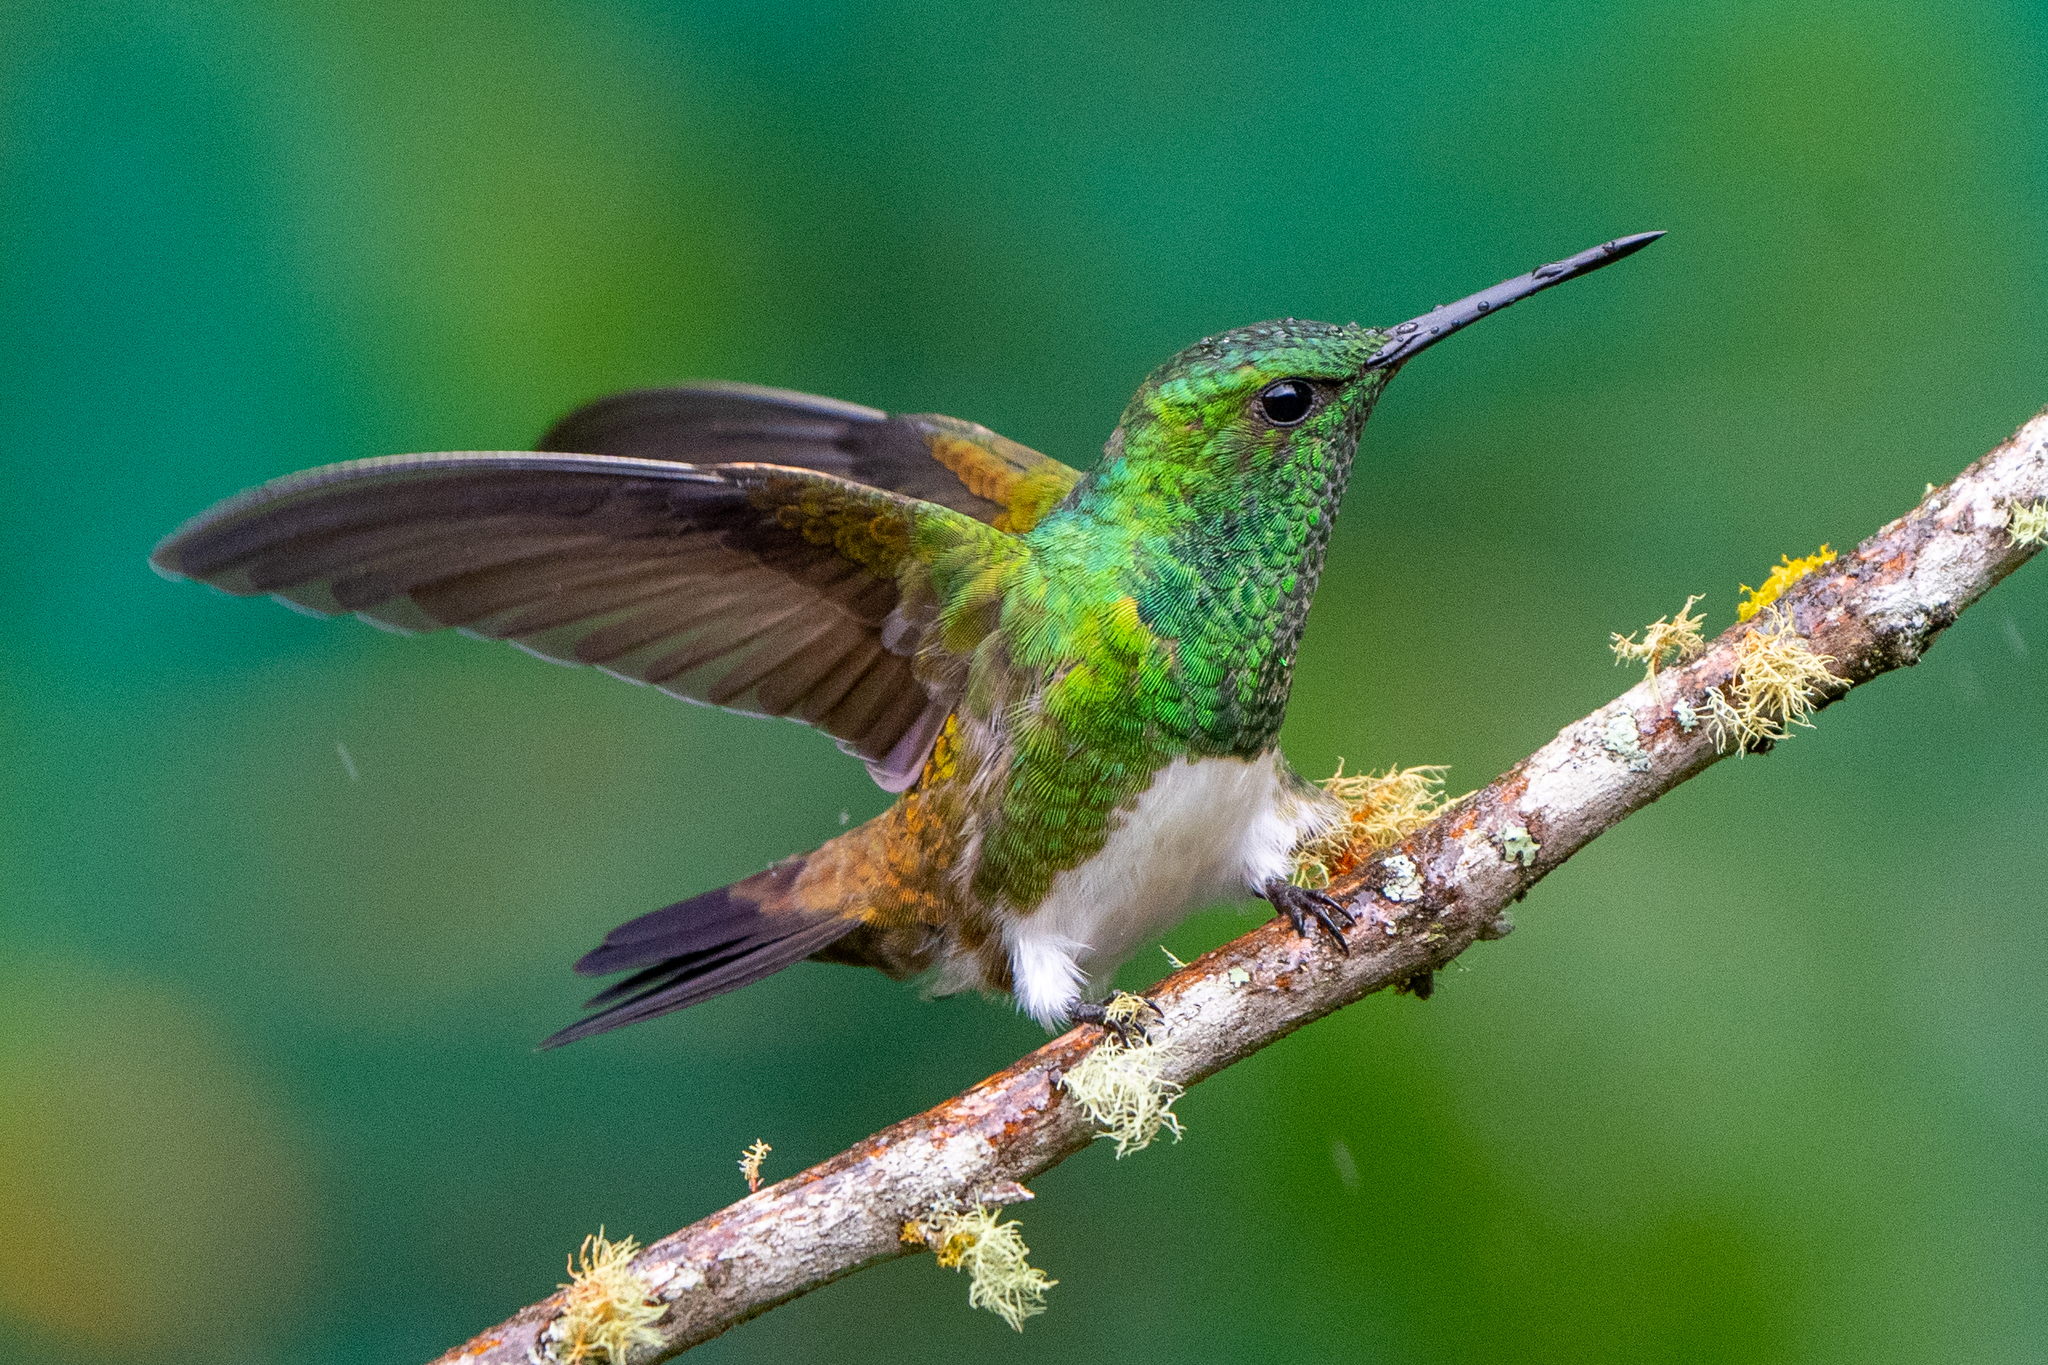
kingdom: Animalia
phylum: Chordata
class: Aves
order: Apodiformes
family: Trochilidae
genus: Saucerottia
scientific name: Saucerottia edward
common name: Snowy-bellied hummingbird
